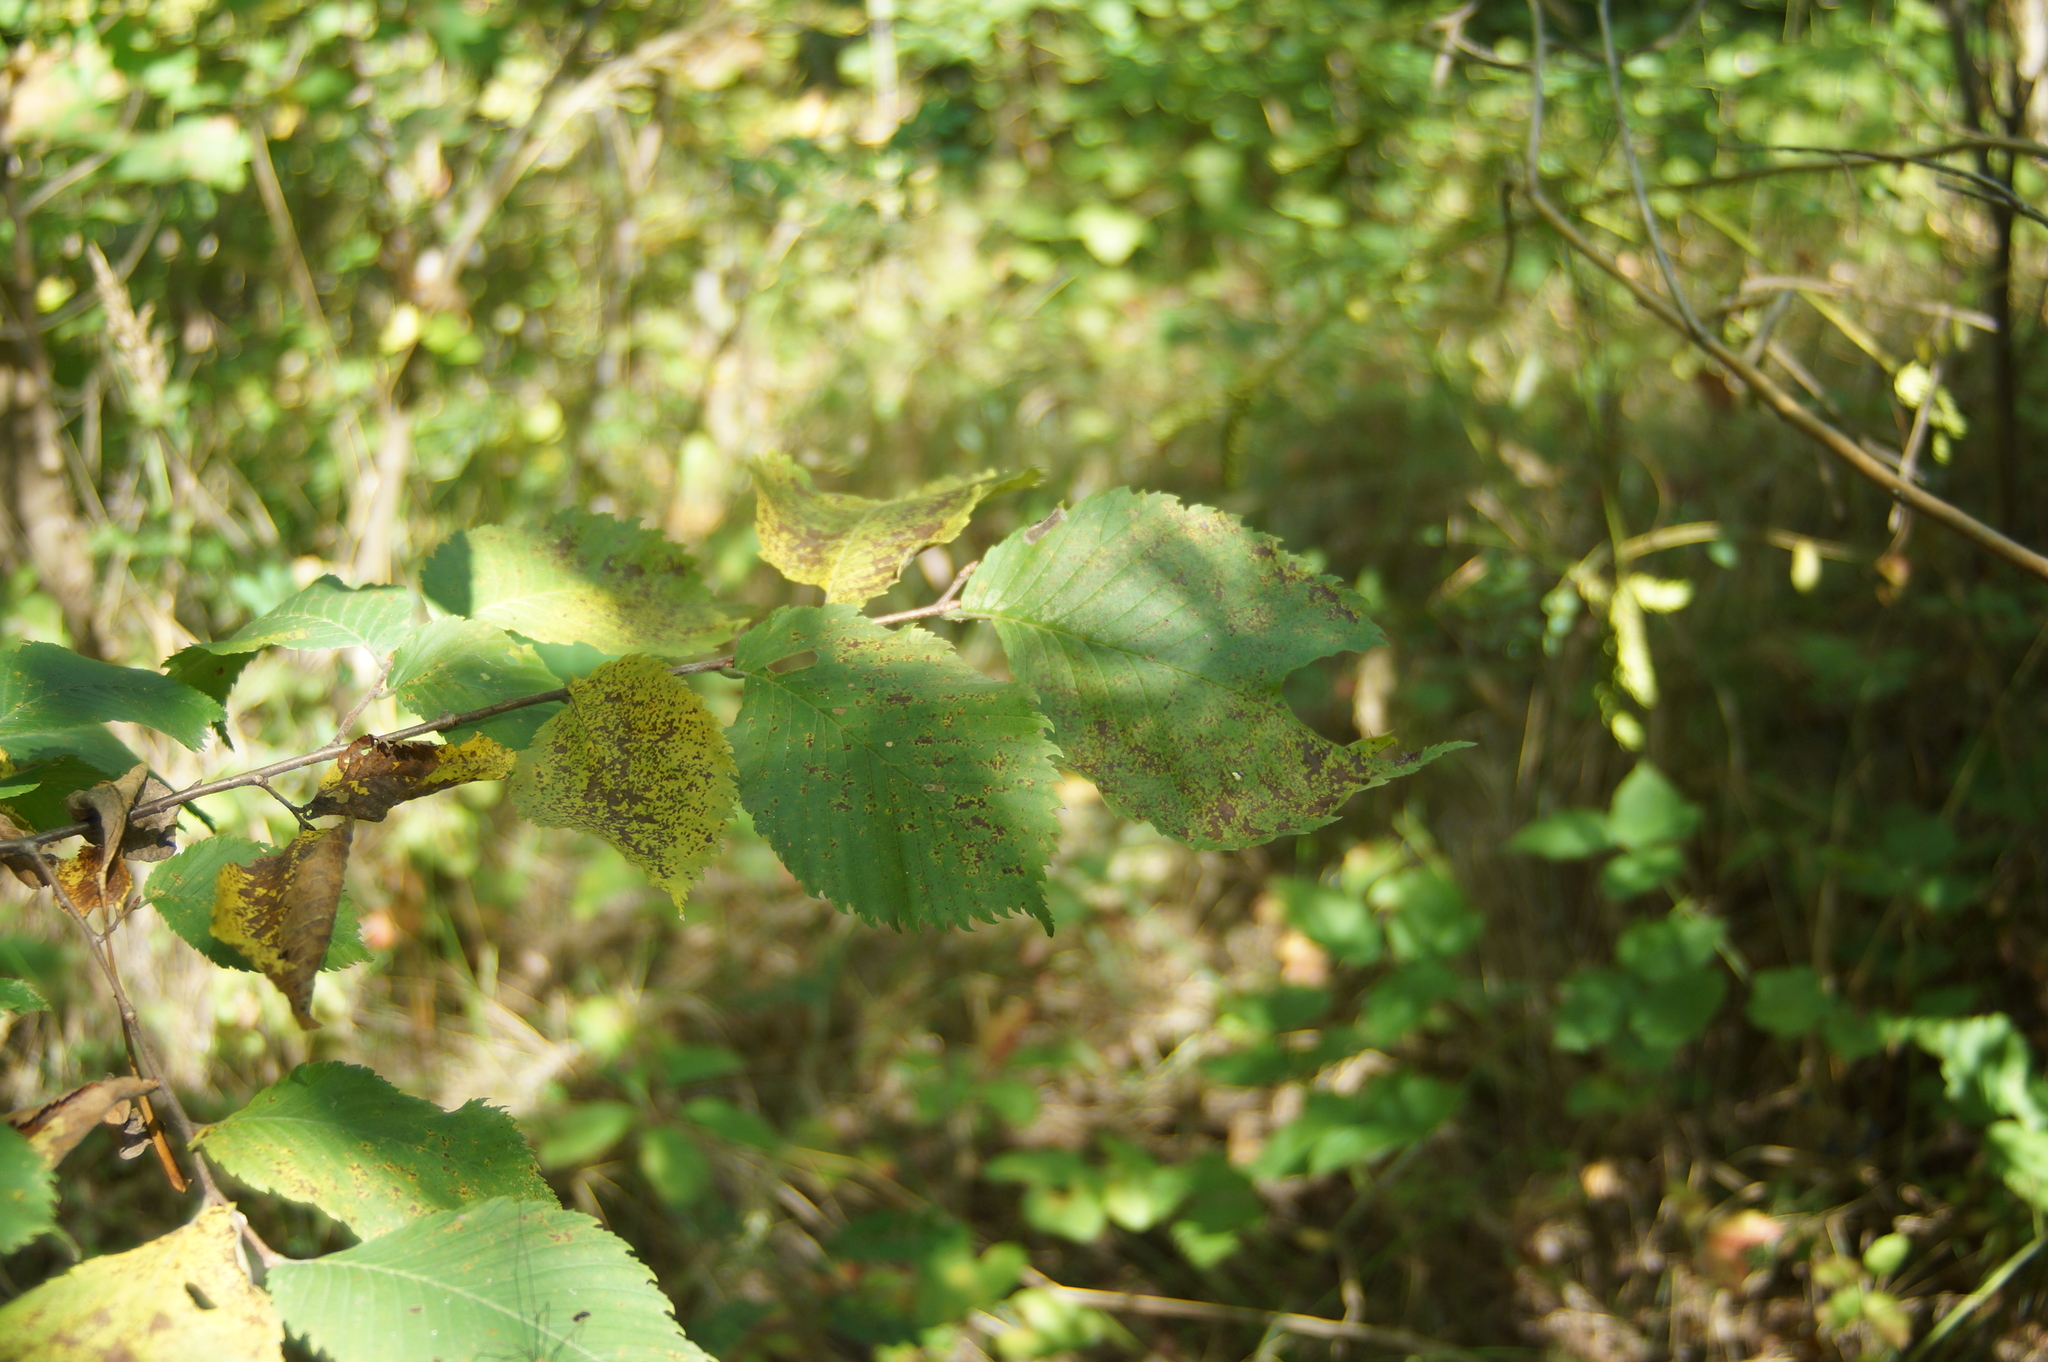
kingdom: Plantae
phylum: Tracheophyta
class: Magnoliopsida
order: Rosales
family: Ulmaceae
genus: Ulmus
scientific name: Ulmus laevis
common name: European white-elm
